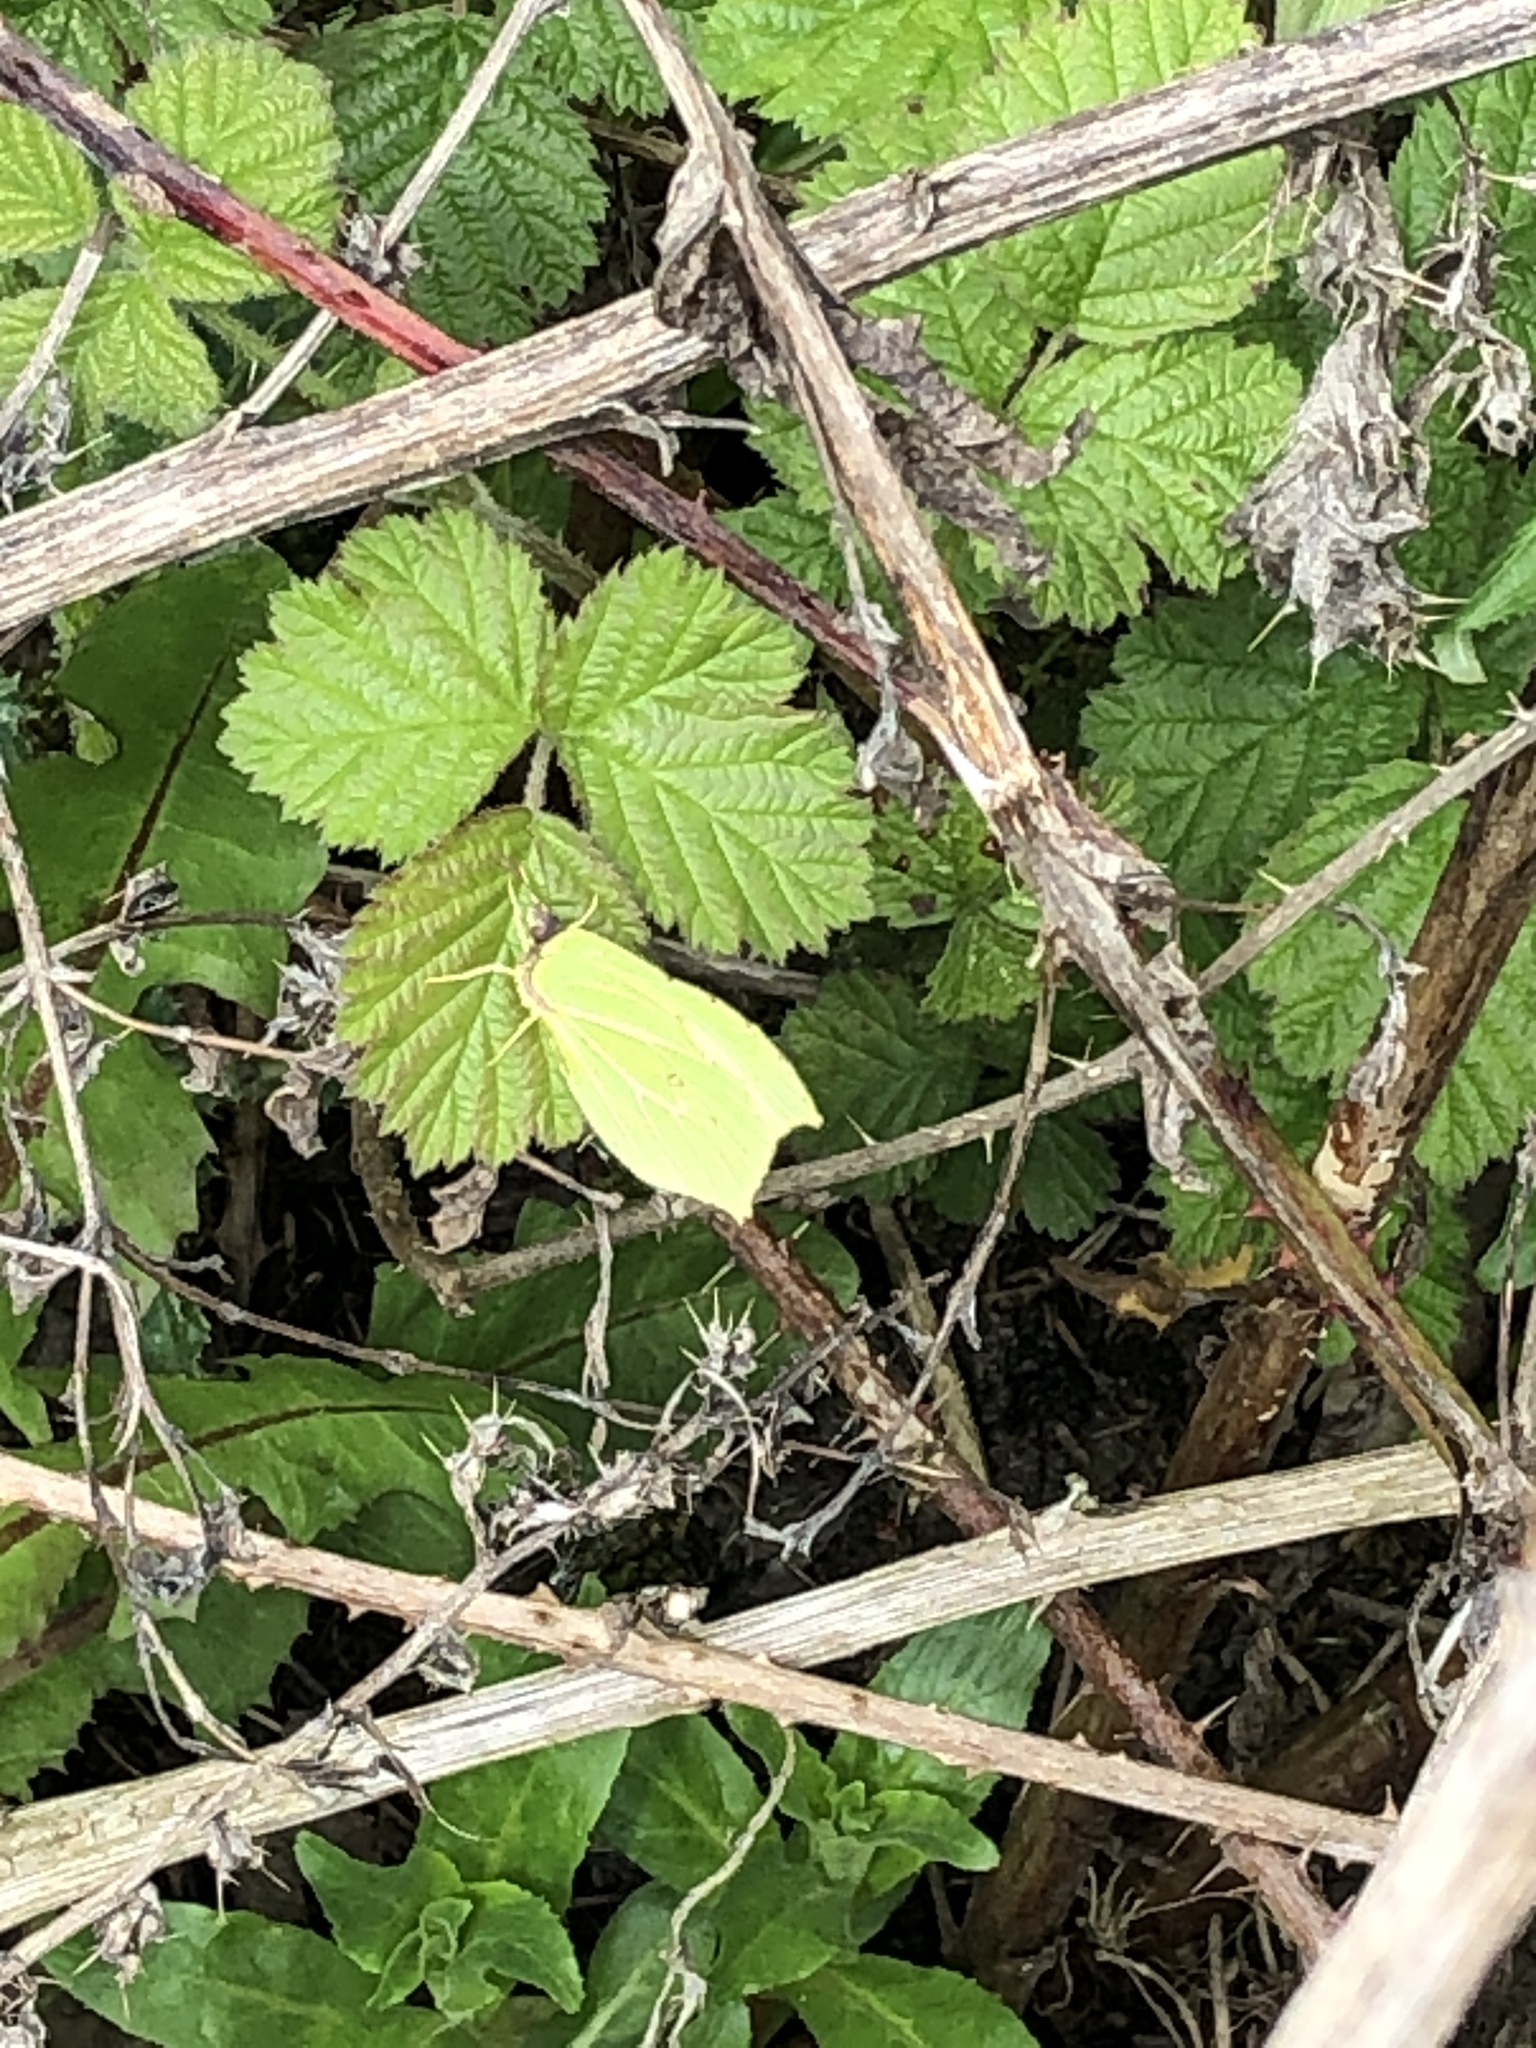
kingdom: Animalia
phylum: Arthropoda
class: Insecta
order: Lepidoptera
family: Pieridae
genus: Gonepteryx
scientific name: Gonepteryx rhamni
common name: Brimstone
